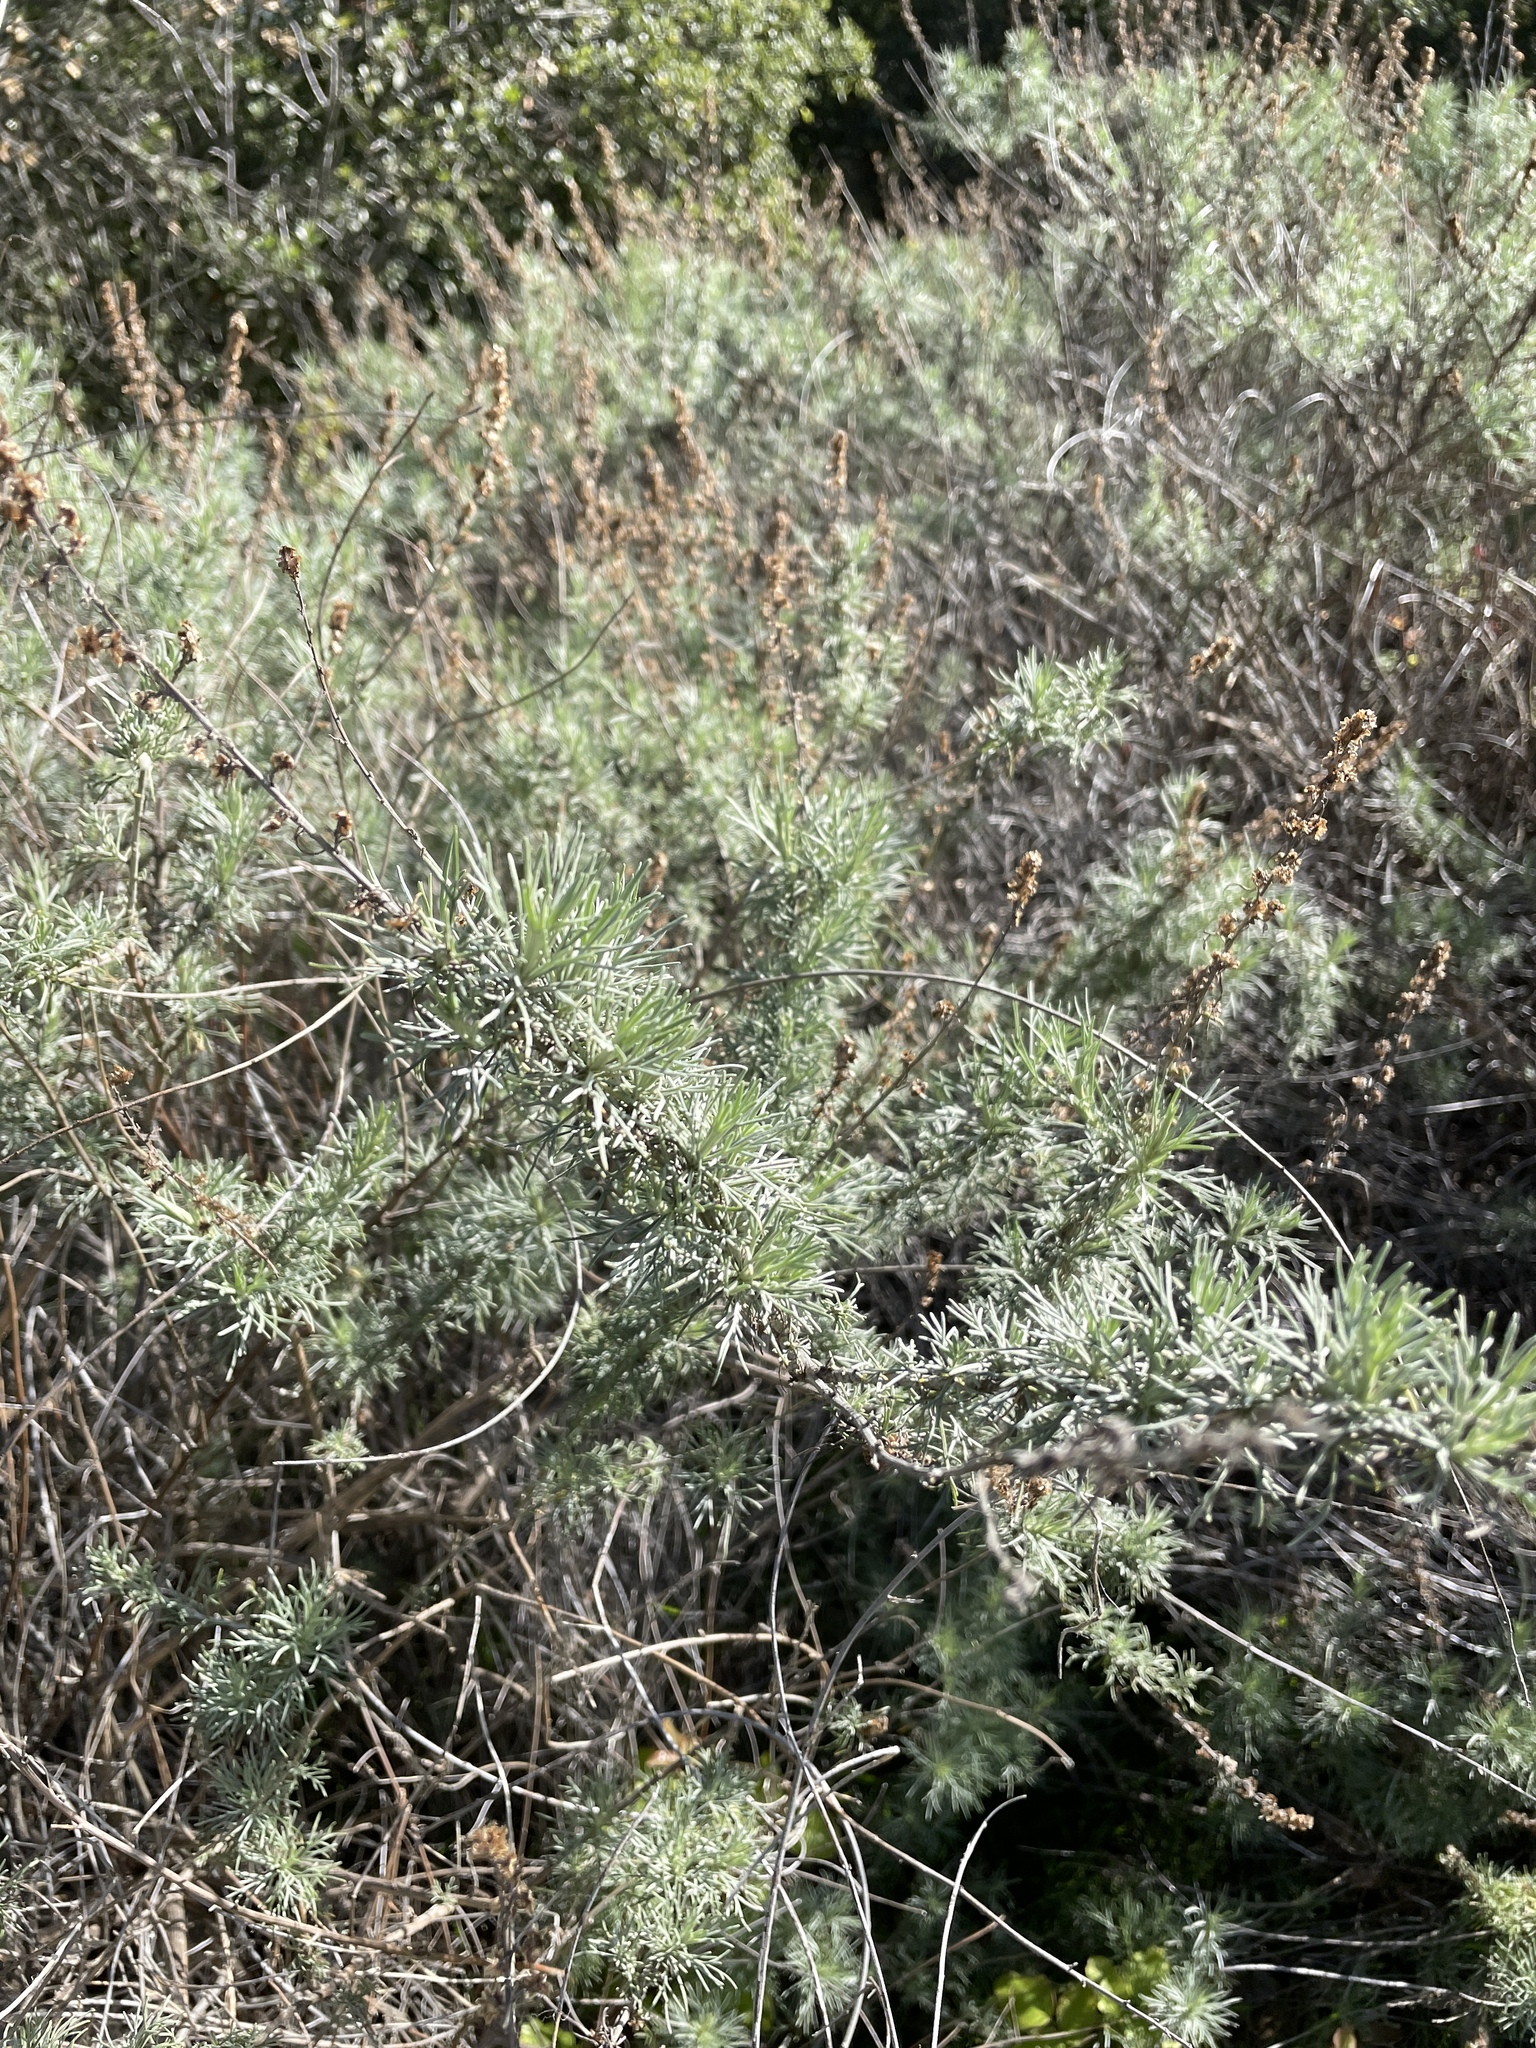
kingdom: Plantae
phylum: Tracheophyta
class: Magnoliopsida
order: Asterales
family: Asteraceae
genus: Artemisia
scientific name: Artemisia californica
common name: California sagebrush
